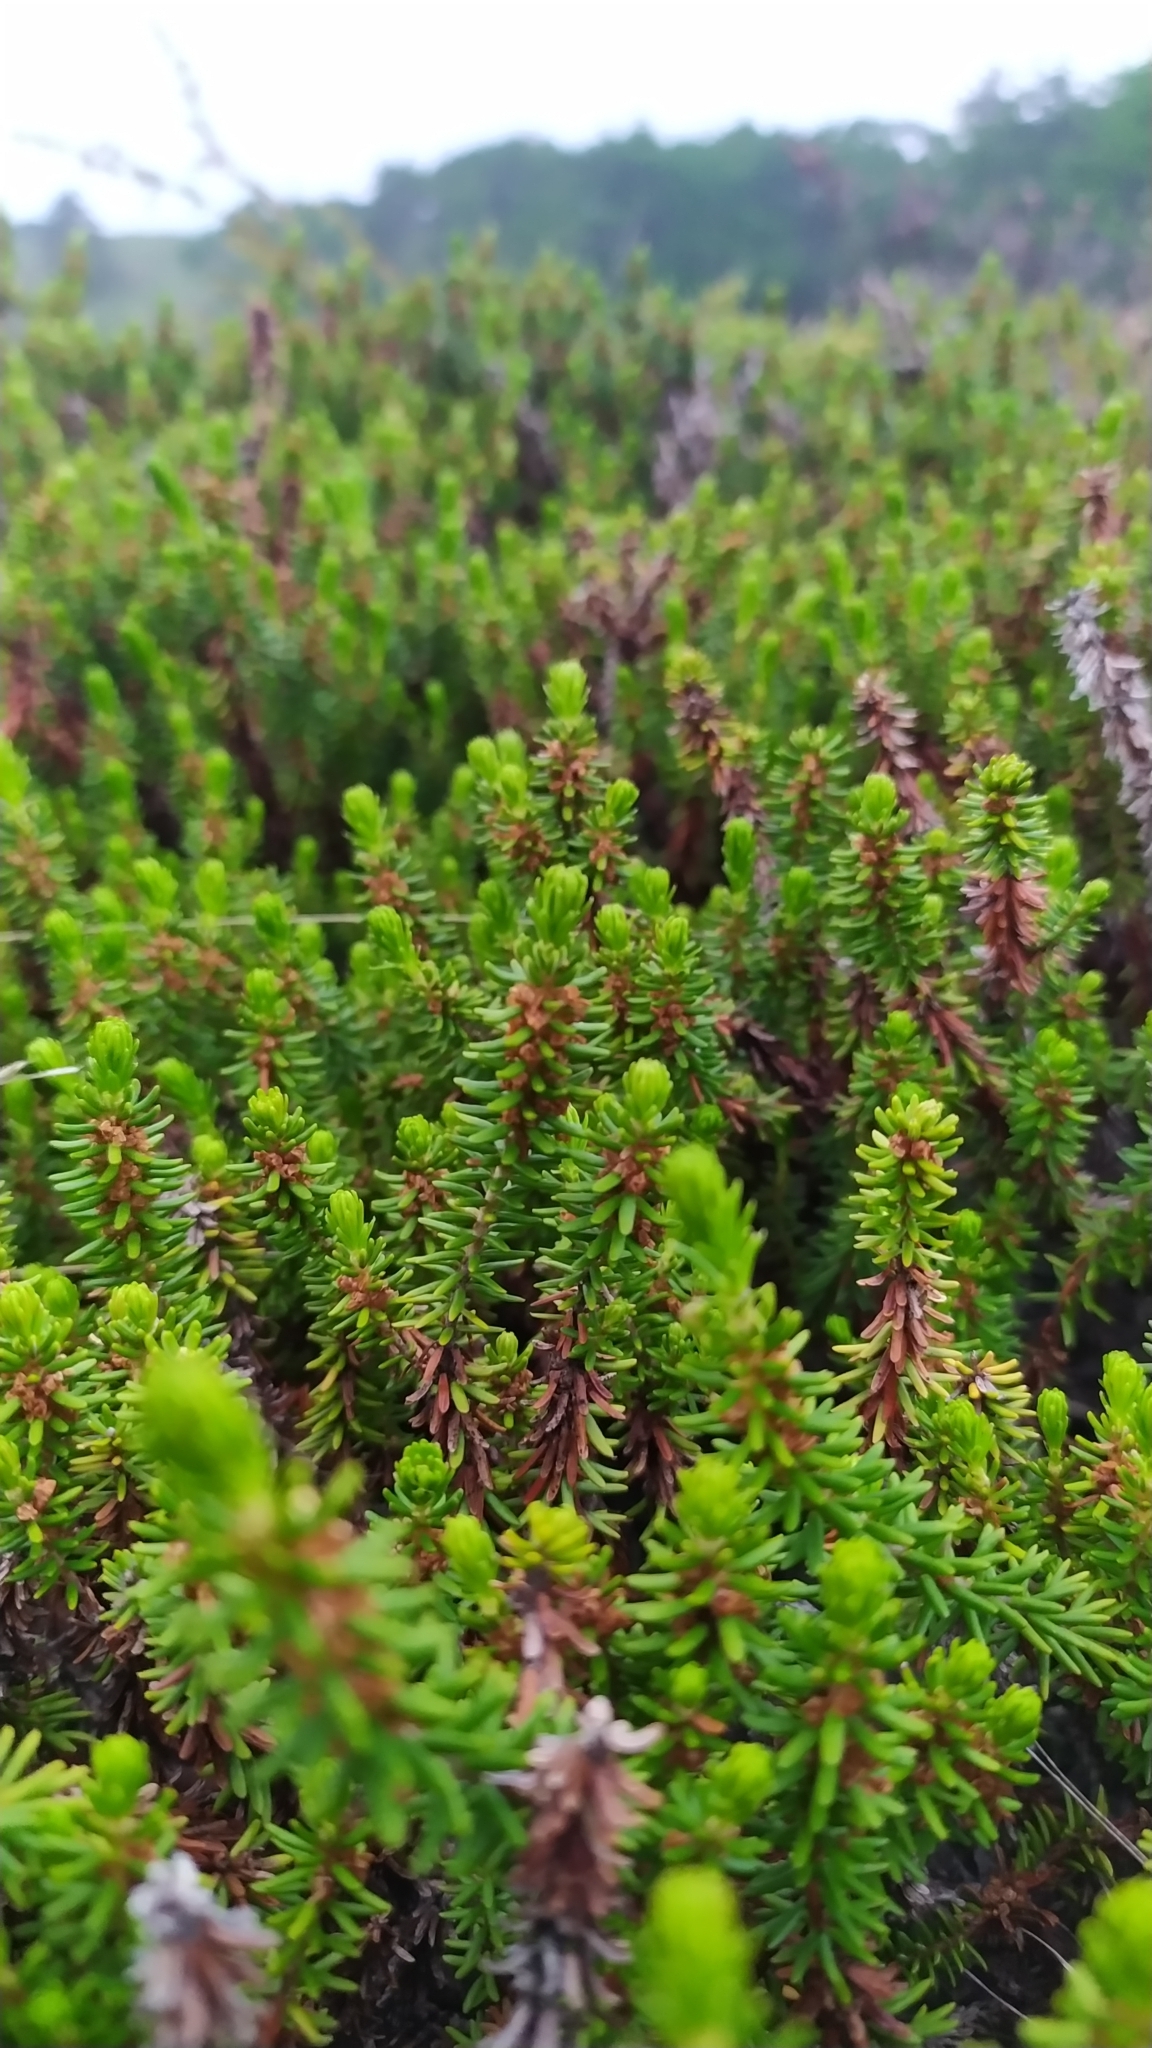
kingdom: Plantae
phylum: Tracheophyta
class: Magnoliopsida
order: Ericales
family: Ericaceae
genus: Empetrum
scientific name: Empetrum nigrum
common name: Black crowberry
